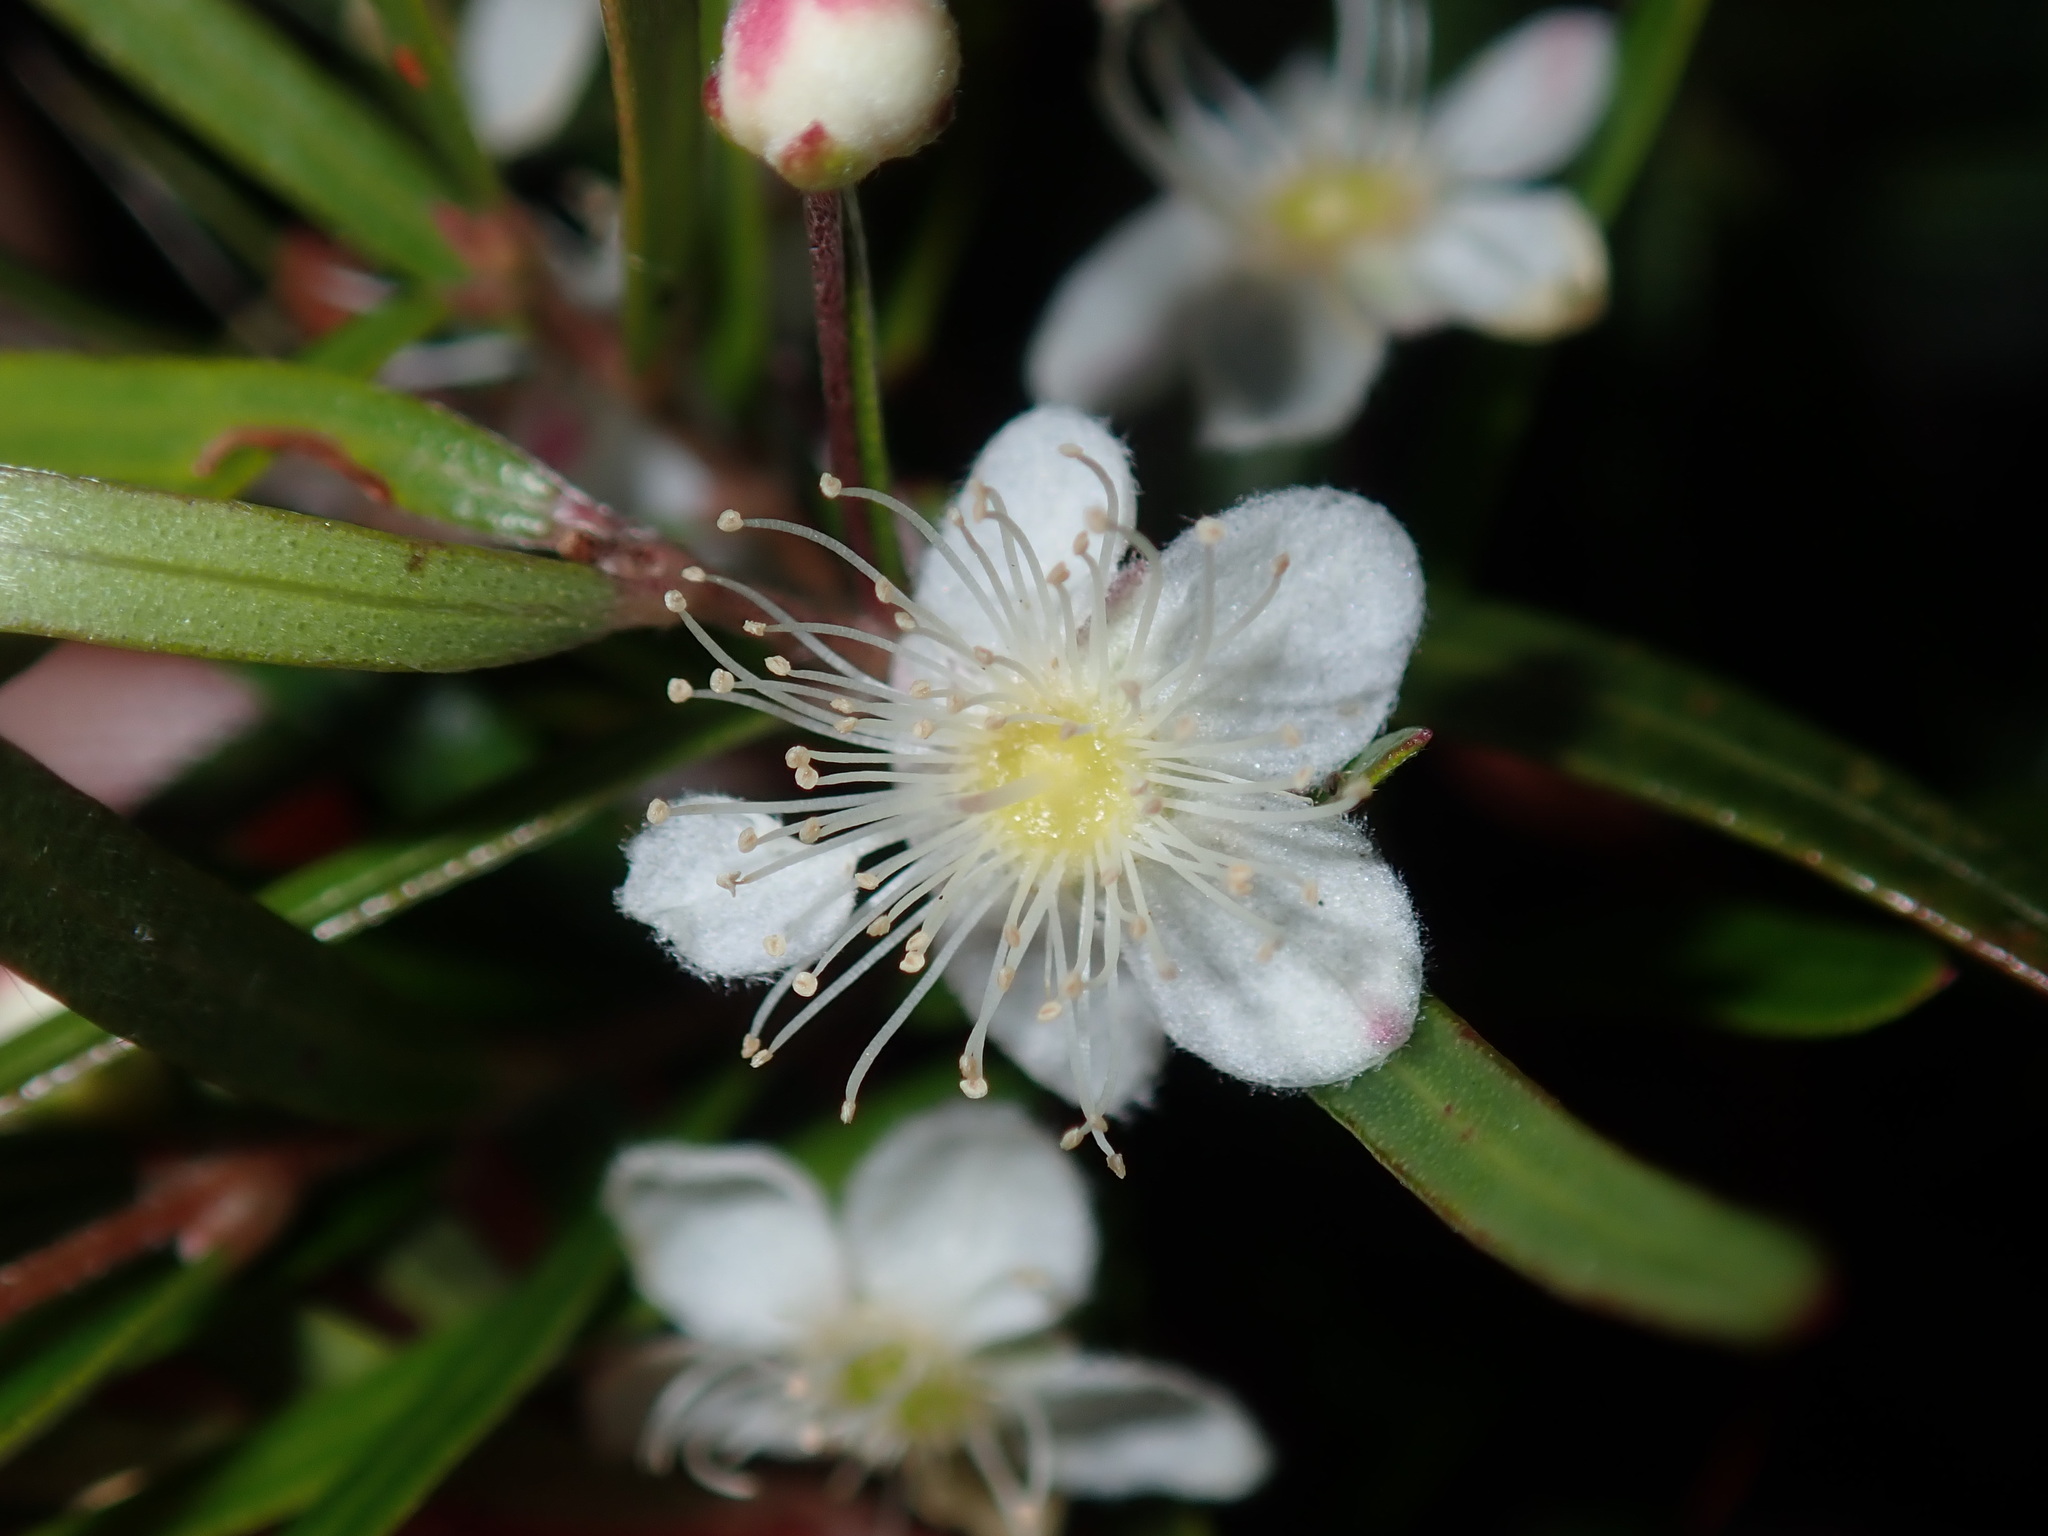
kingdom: Plantae
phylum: Tracheophyta
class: Magnoliopsida
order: Myrtales
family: Myrtaceae
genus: Austromyrtus
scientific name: Austromyrtus tenuifolia
